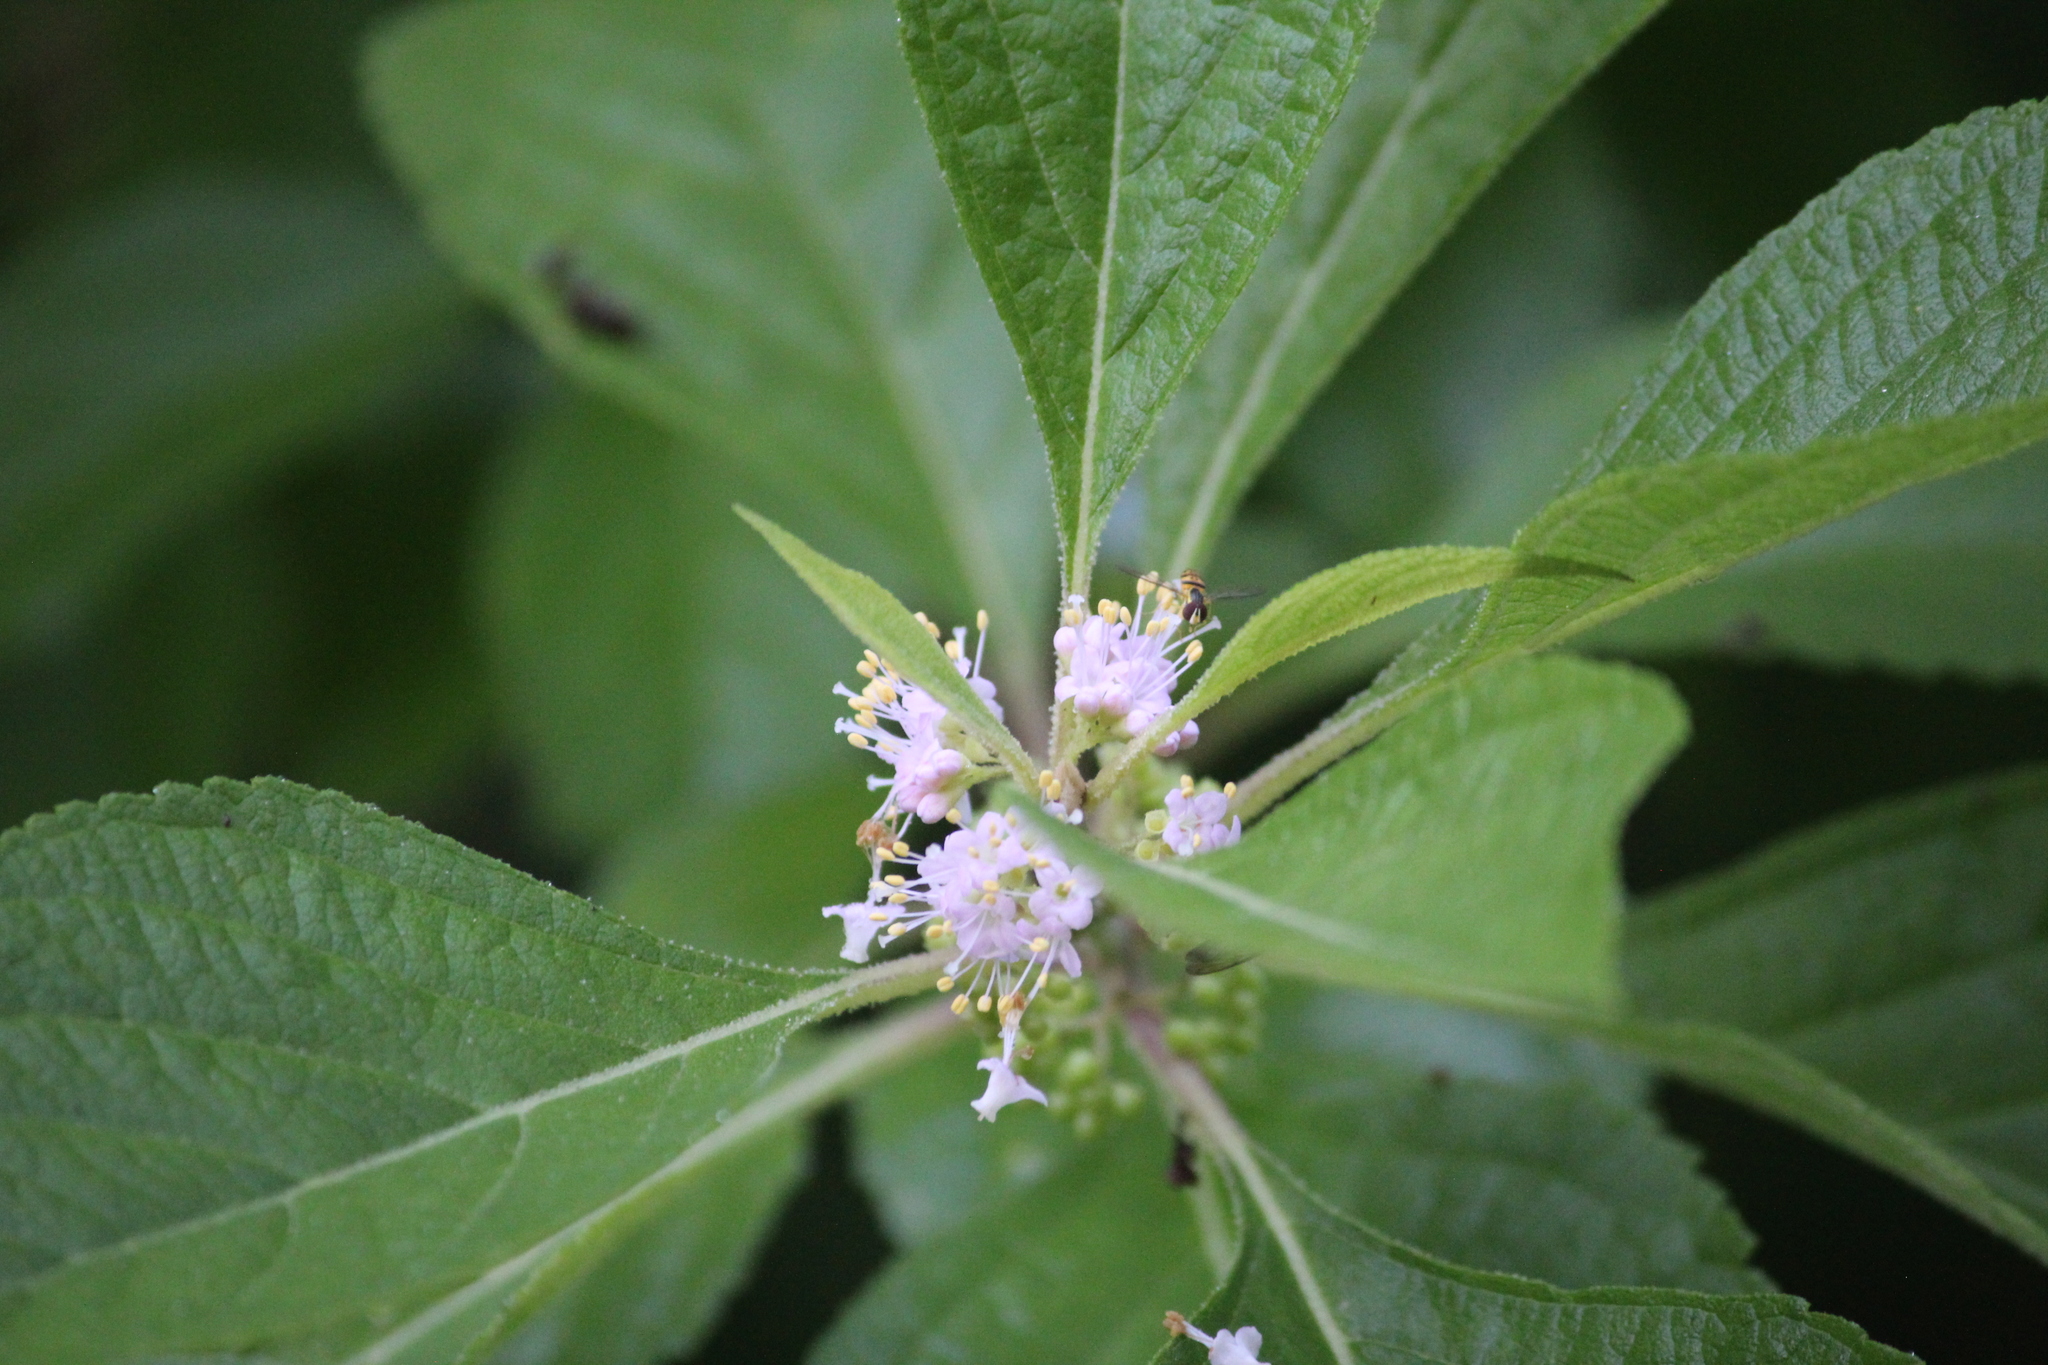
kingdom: Plantae
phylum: Tracheophyta
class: Magnoliopsida
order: Lamiales
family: Lamiaceae
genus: Callicarpa
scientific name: Callicarpa americana
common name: American beautyberry
